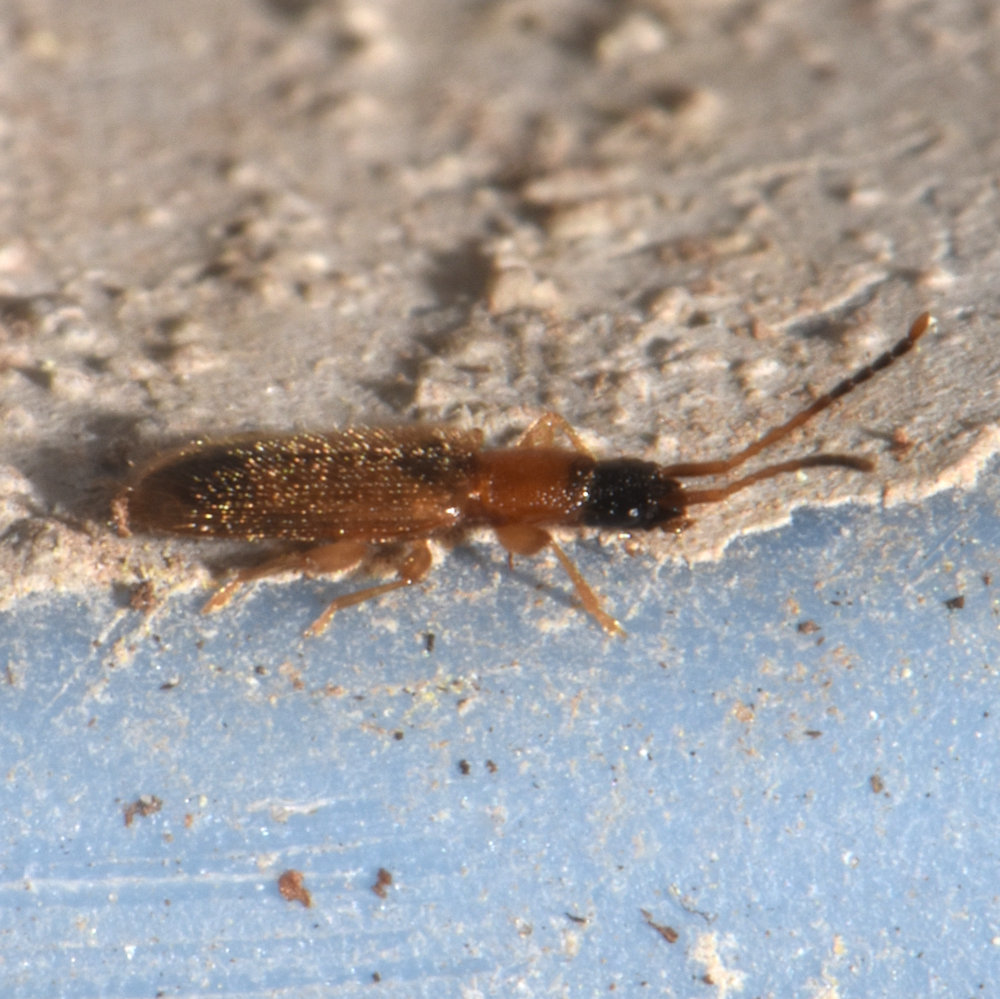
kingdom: Animalia
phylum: Arthropoda
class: Insecta
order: Coleoptera
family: Silvanidae
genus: Telephanus
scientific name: Telephanus velox
